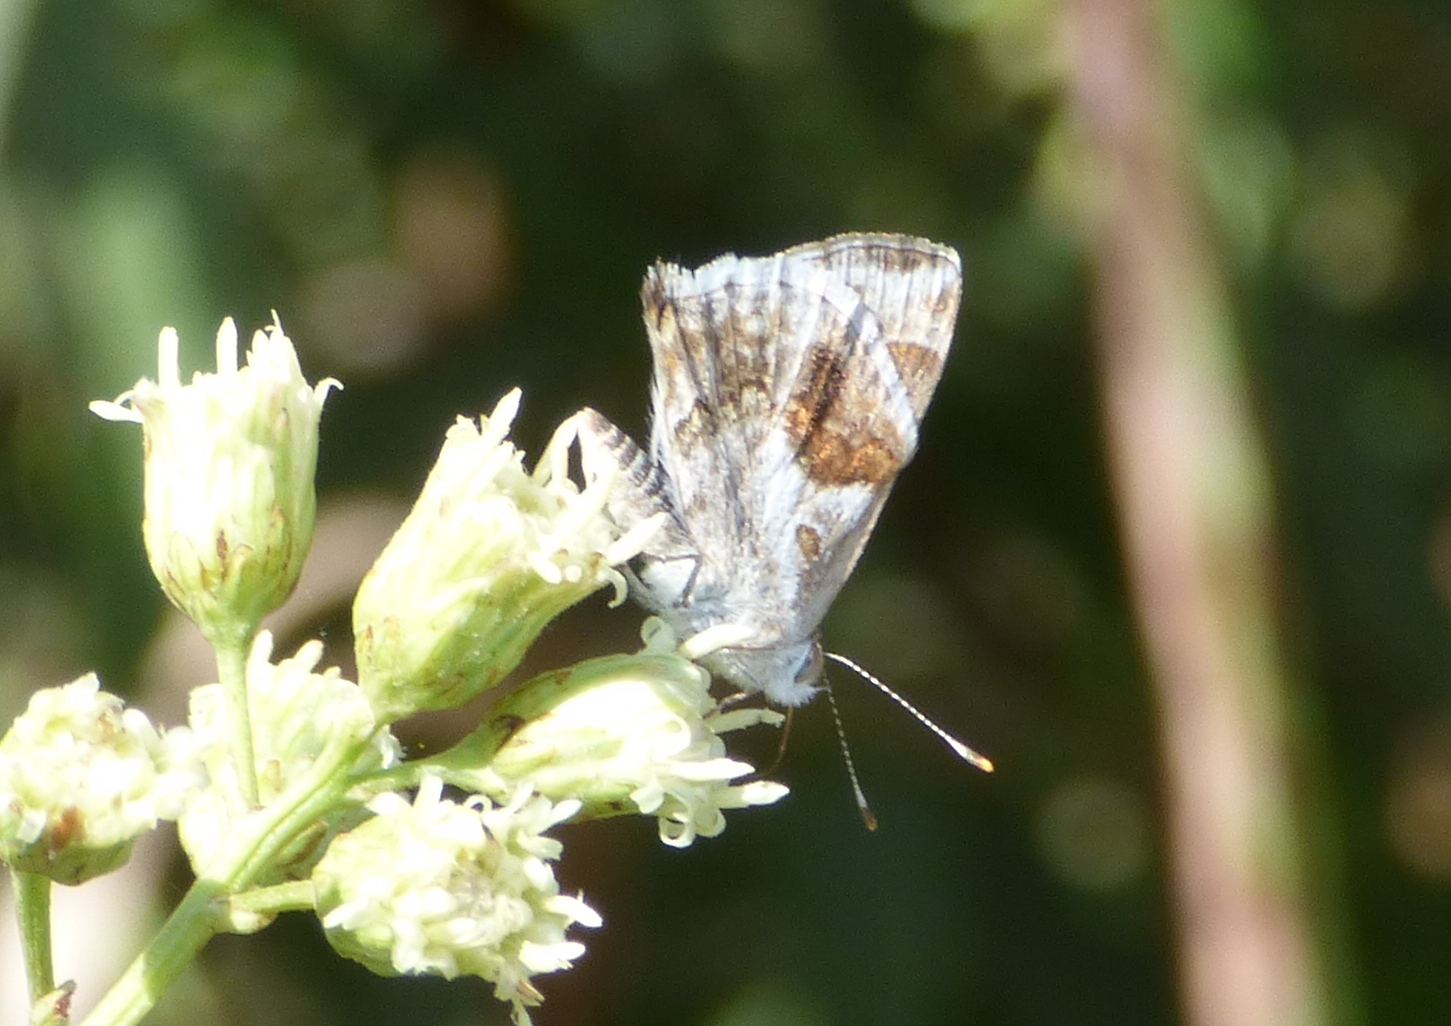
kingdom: Animalia
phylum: Arthropoda
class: Insecta
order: Lepidoptera
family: Lycaenidae
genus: Strymon
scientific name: Strymon bazochii
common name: Lantana scrub-hairstreak
